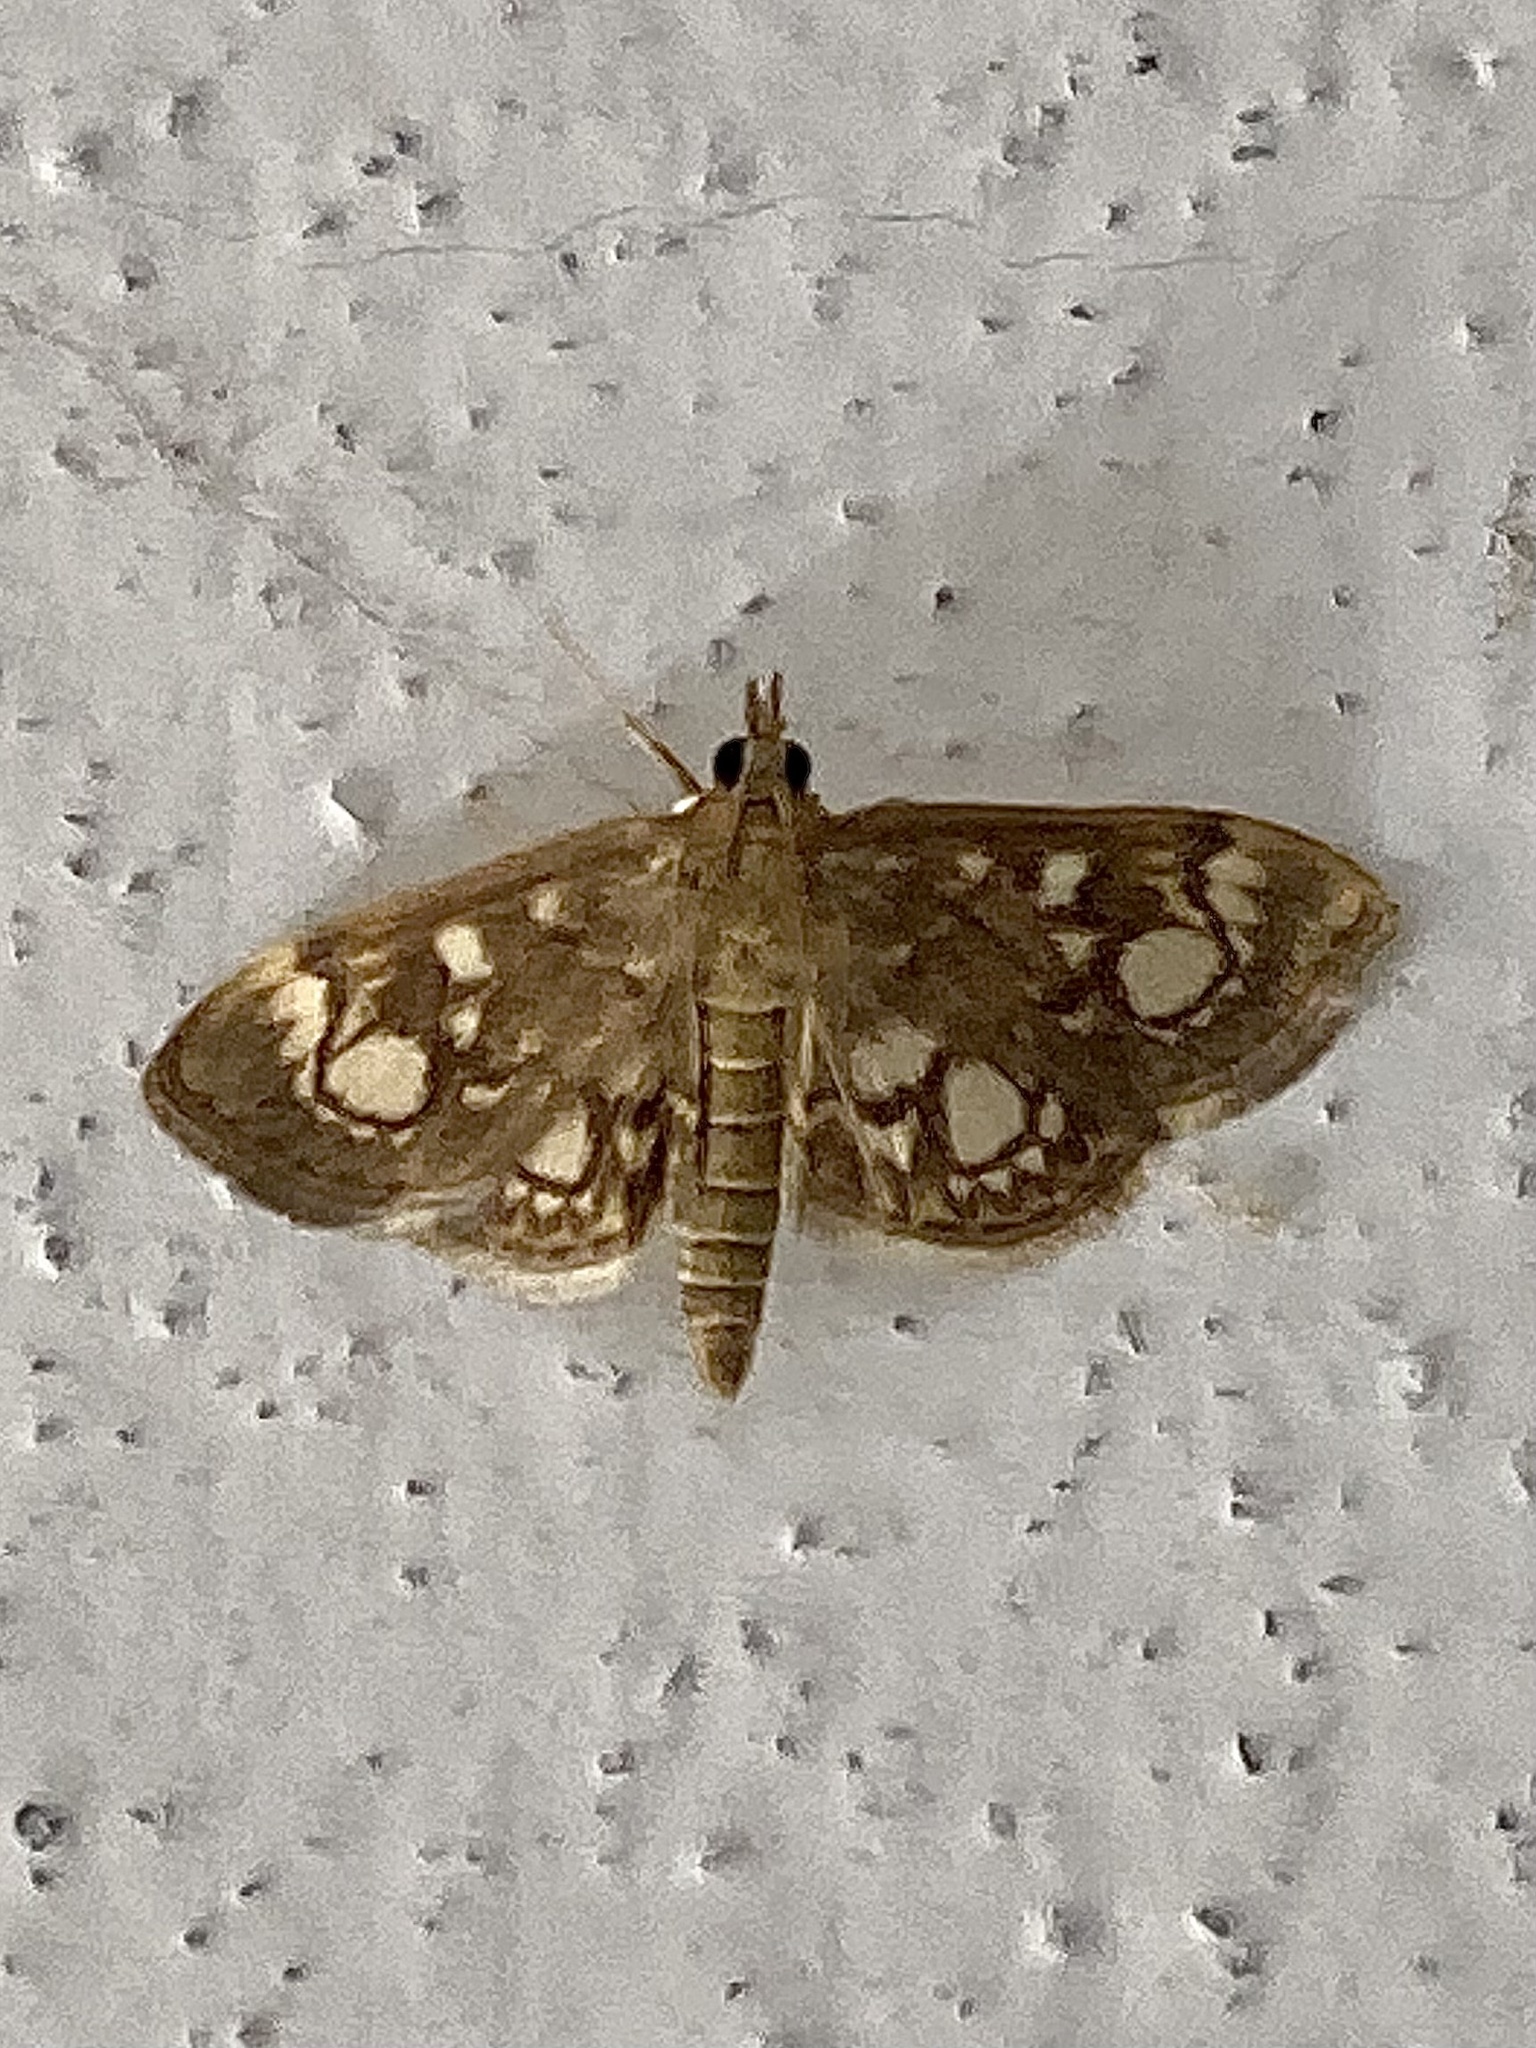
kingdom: Animalia
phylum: Arthropoda
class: Insecta
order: Lepidoptera
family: Crambidae
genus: Anania
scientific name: Anania coronata
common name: Elder pearl
